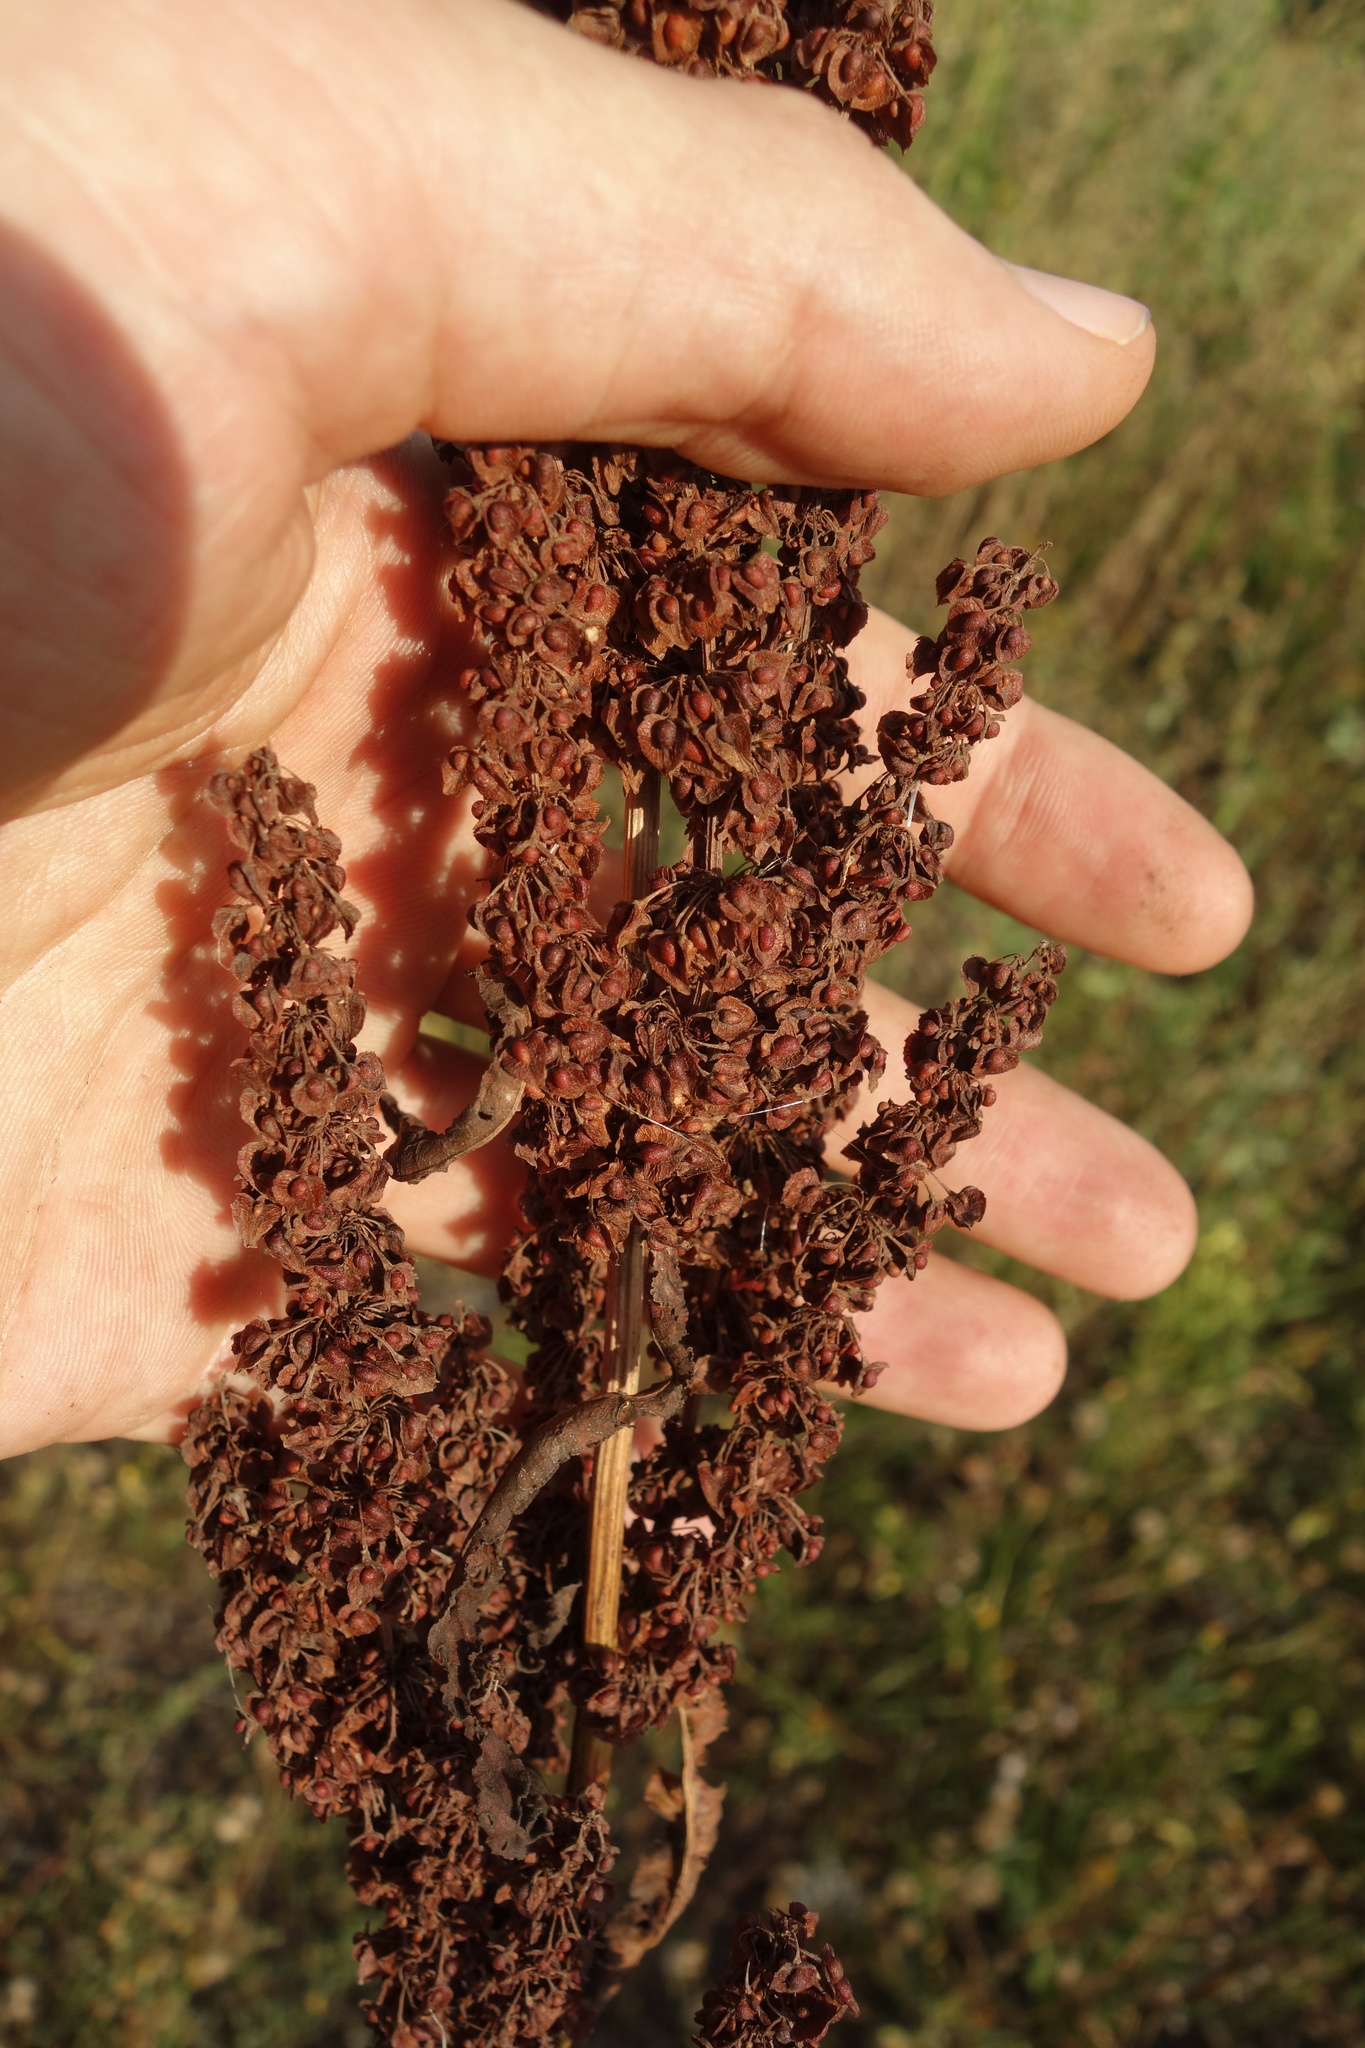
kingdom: Plantae
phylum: Tracheophyta
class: Magnoliopsida
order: Caryophyllales
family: Polygonaceae
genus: Rumex
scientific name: Rumex crispus
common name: Curled dock
